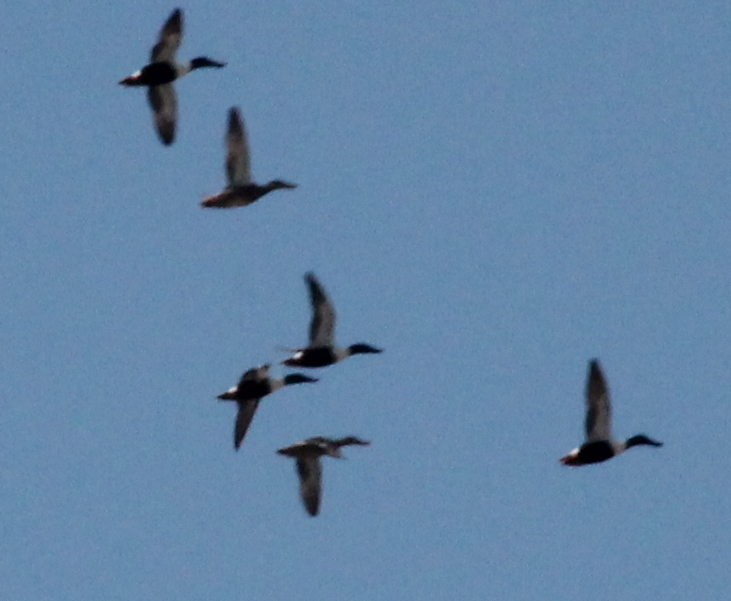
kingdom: Animalia
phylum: Chordata
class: Aves
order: Anseriformes
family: Anatidae
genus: Spatula
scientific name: Spatula clypeata
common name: Northern shoveler
